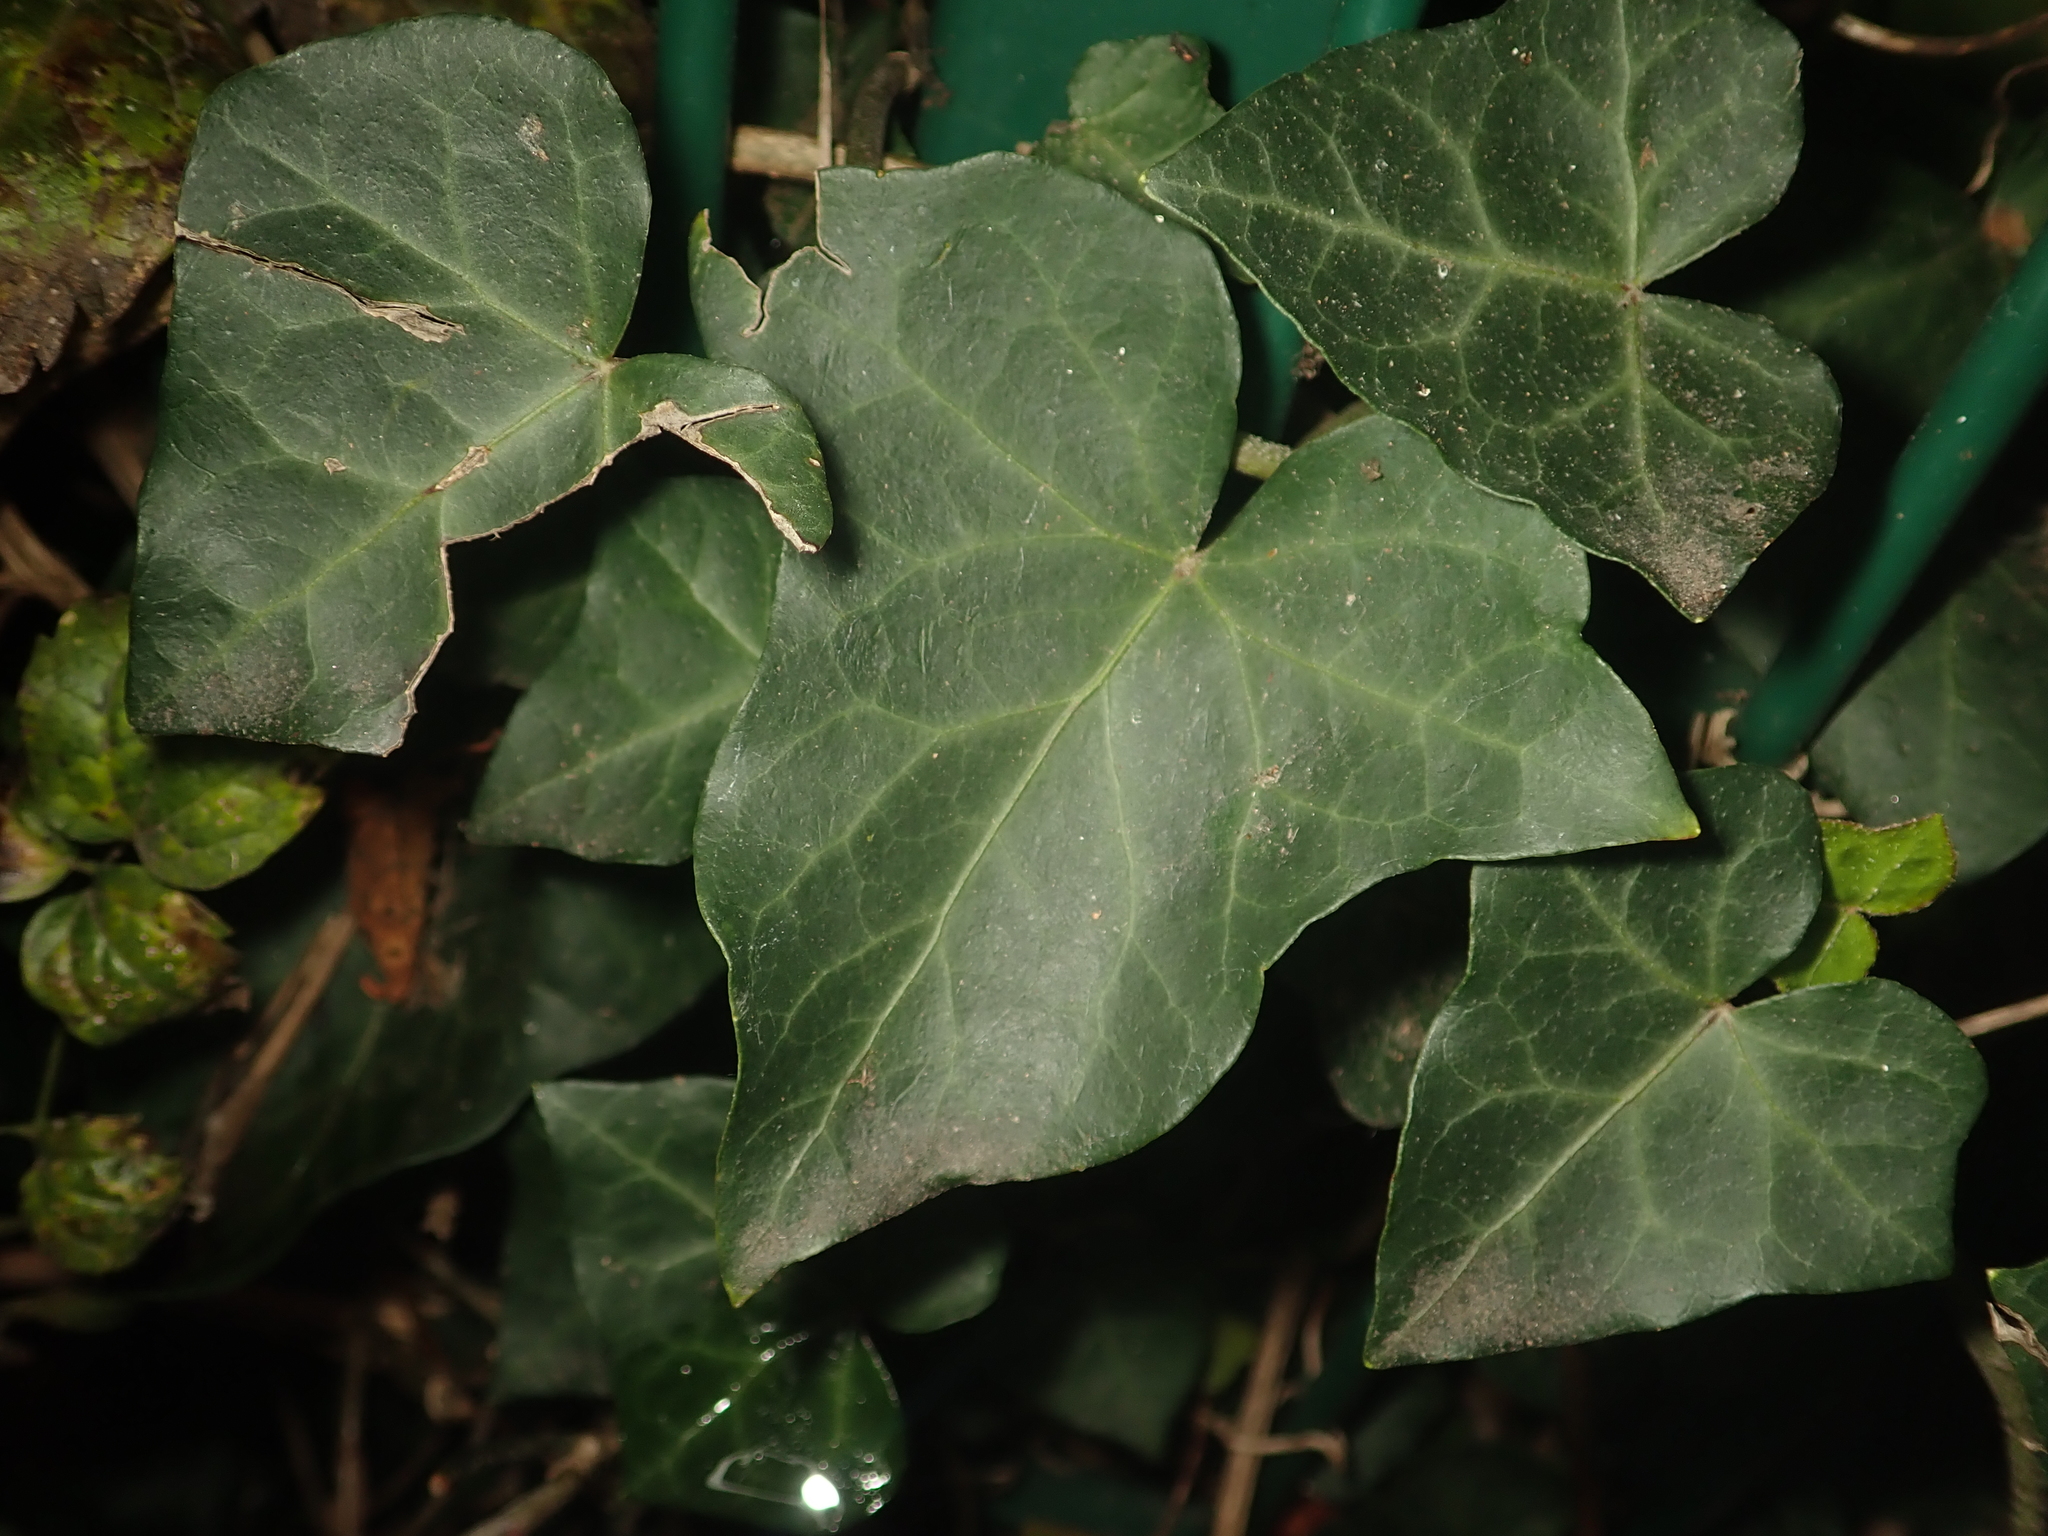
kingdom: Plantae
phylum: Tracheophyta
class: Magnoliopsida
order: Apiales
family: Araliaceae
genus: Hedera
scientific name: Hedera helix
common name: Ivy
